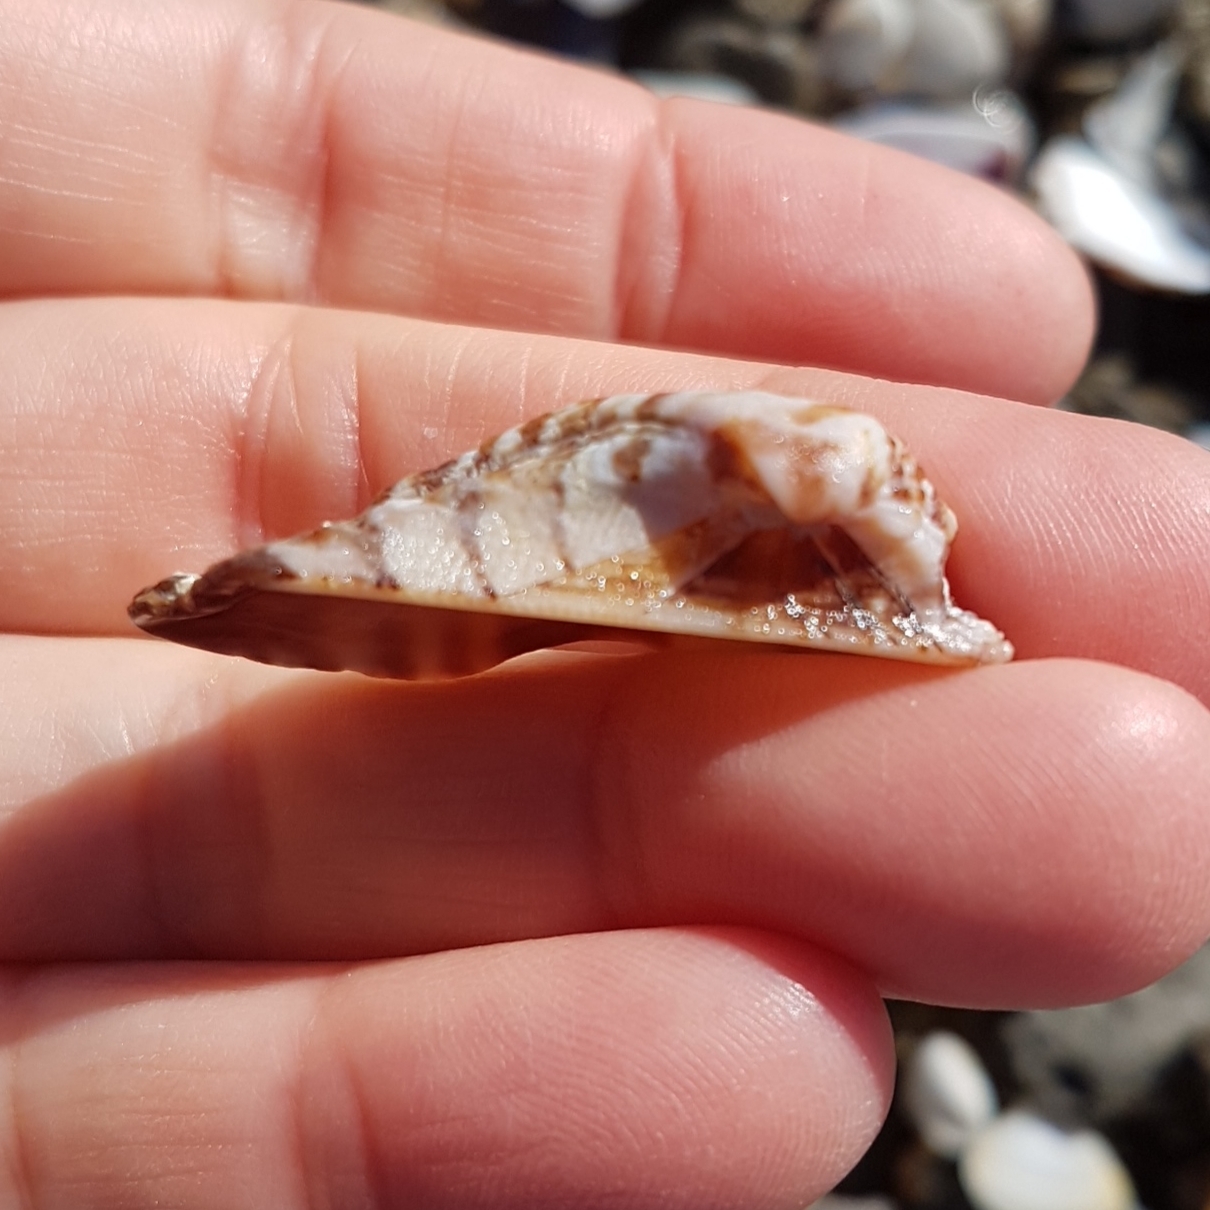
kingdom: Animalia
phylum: Mollusca
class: Bivalvia
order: Arcida
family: Arcidae
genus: Arca
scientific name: Arca noae
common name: Noah's arch
